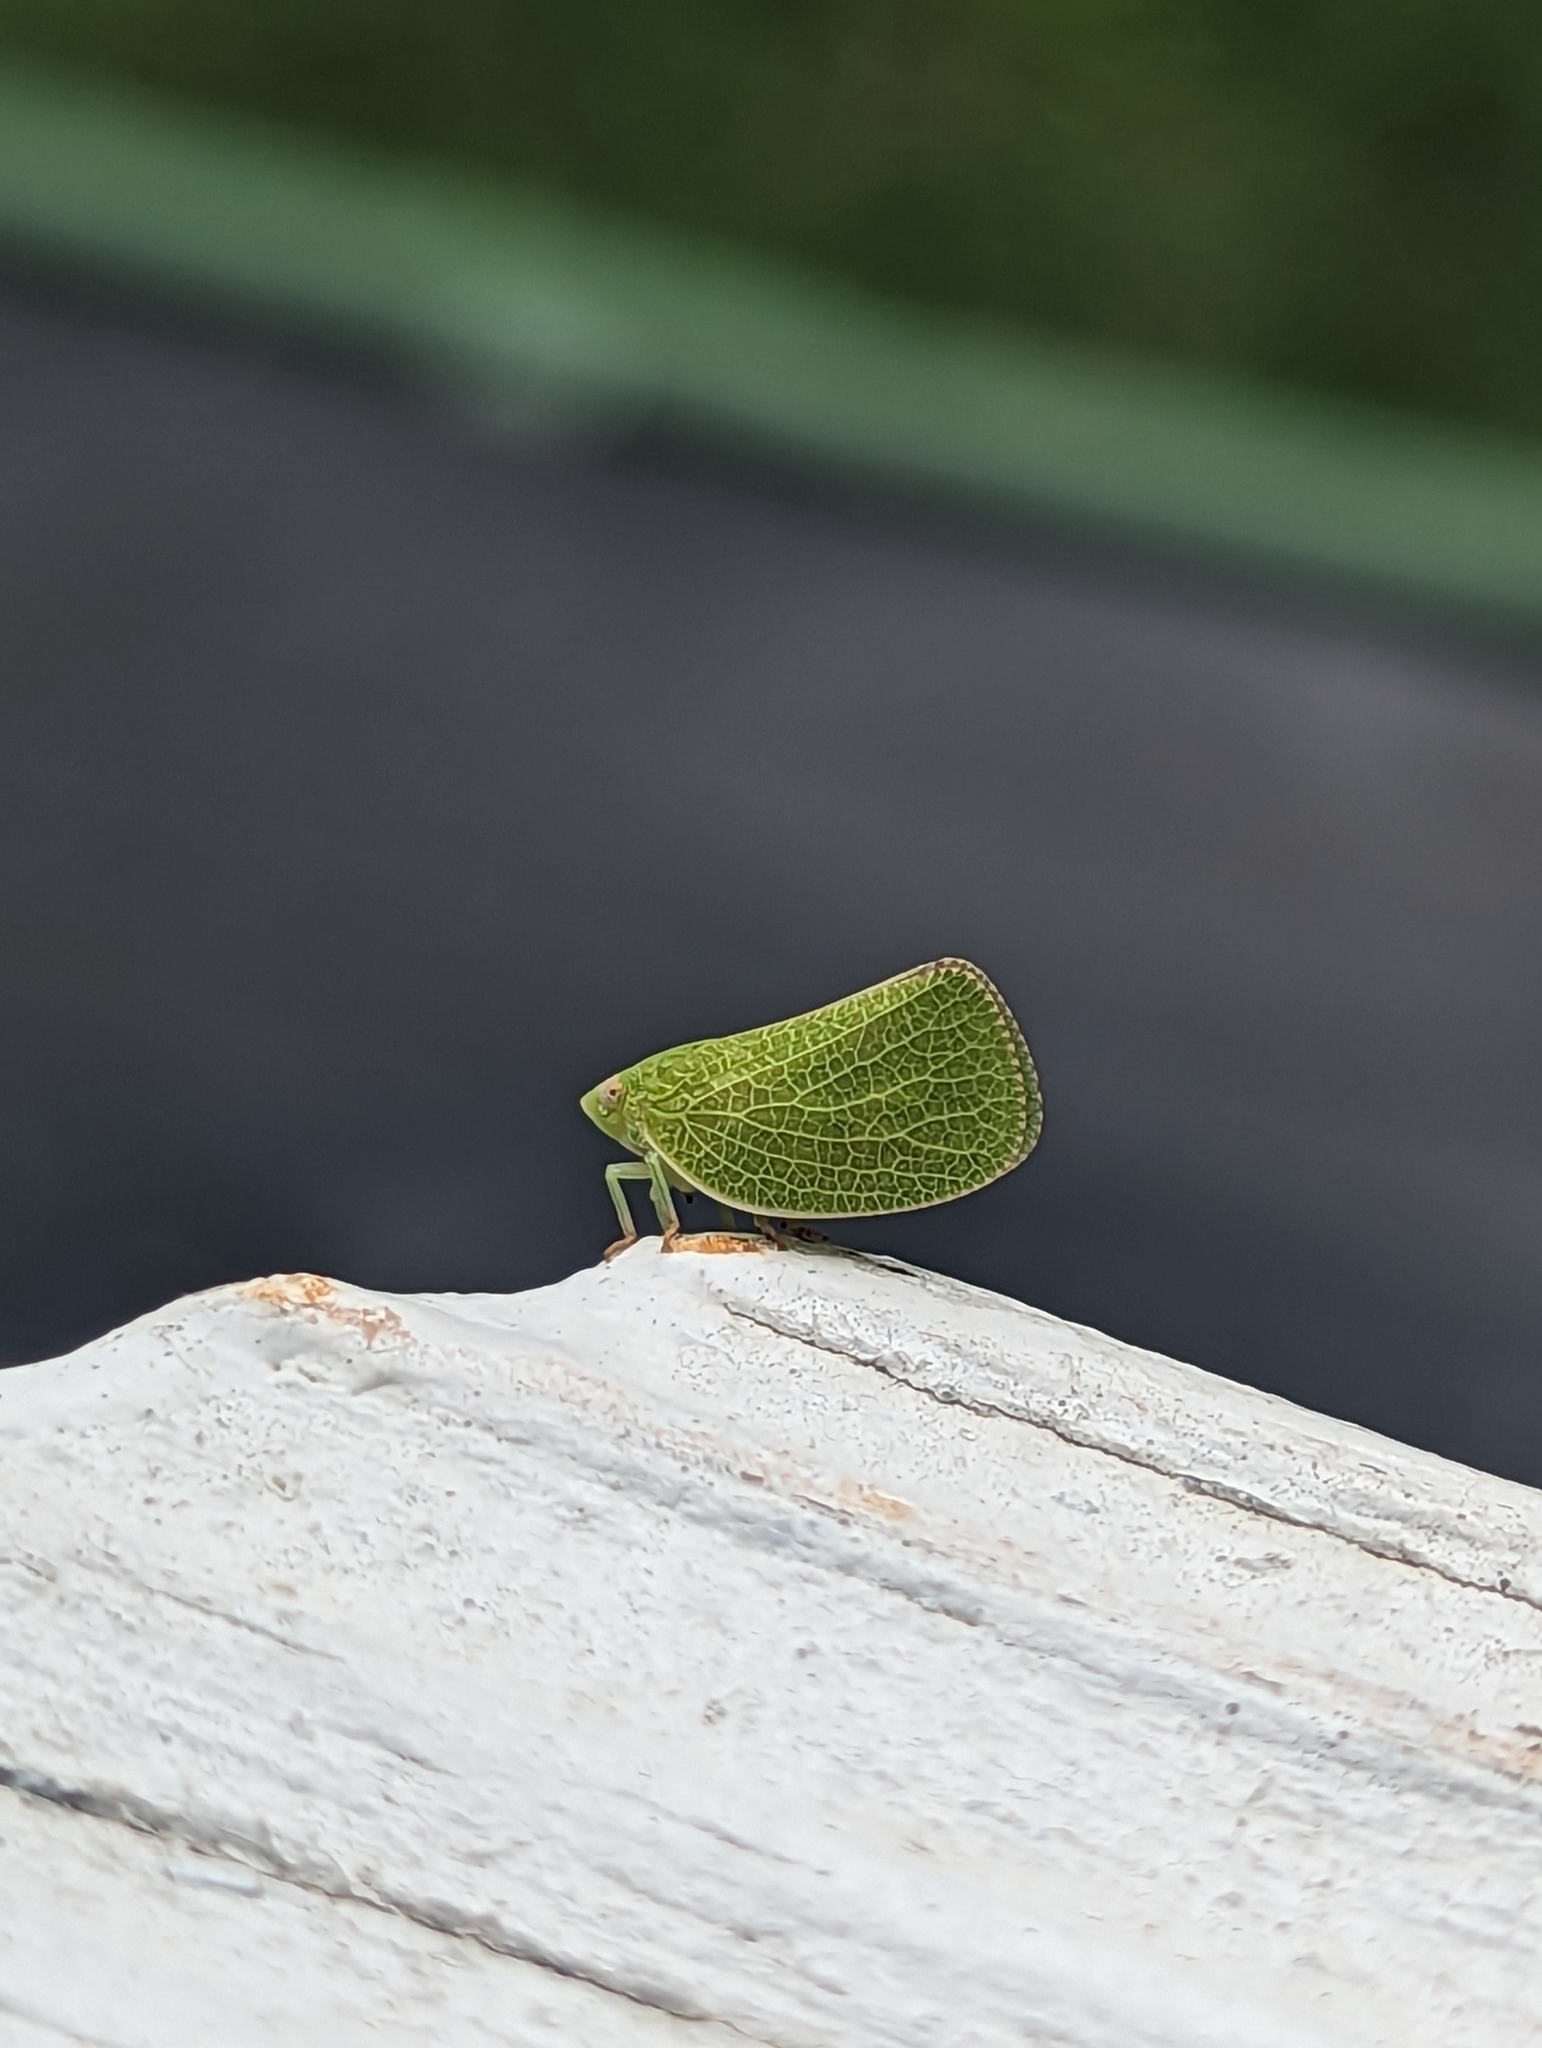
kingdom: Animalia
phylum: Arthropoda
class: Insecta
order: Hemiptera
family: Acanaloniidae
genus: Acanalonia
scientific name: Acanalonia conica
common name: Green cone-headed planthopper
